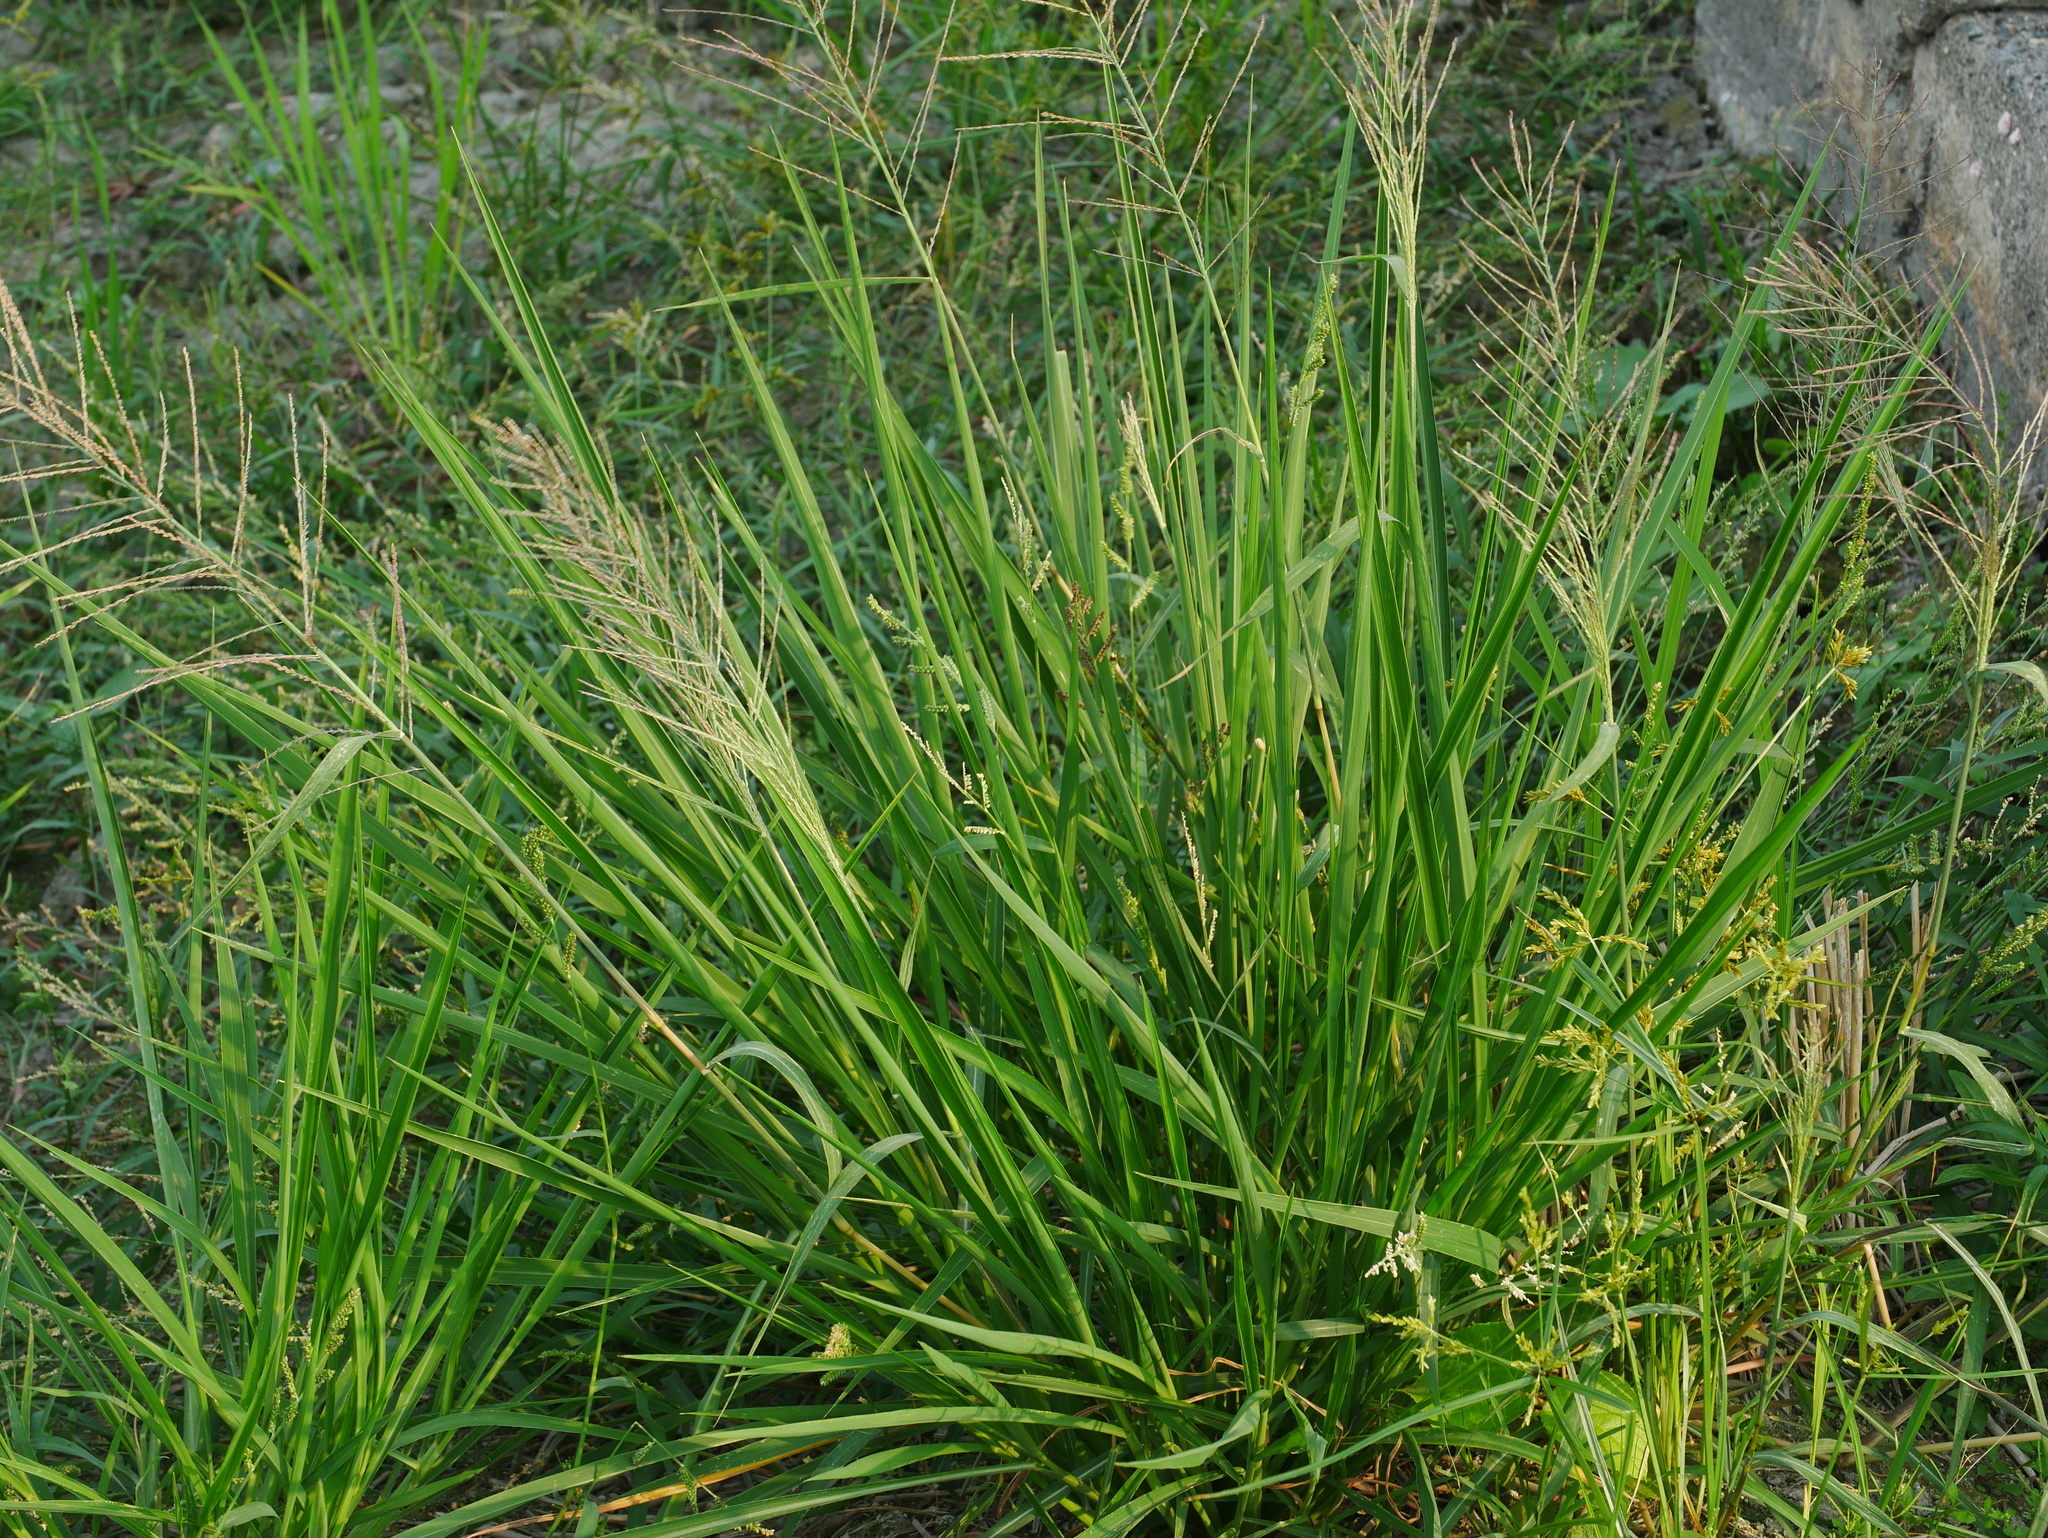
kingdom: Plantae
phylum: Tracheophyta
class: Liliopsida
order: Poales
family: Poaceae
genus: Leptochloa
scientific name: Leptochloa chinensis
